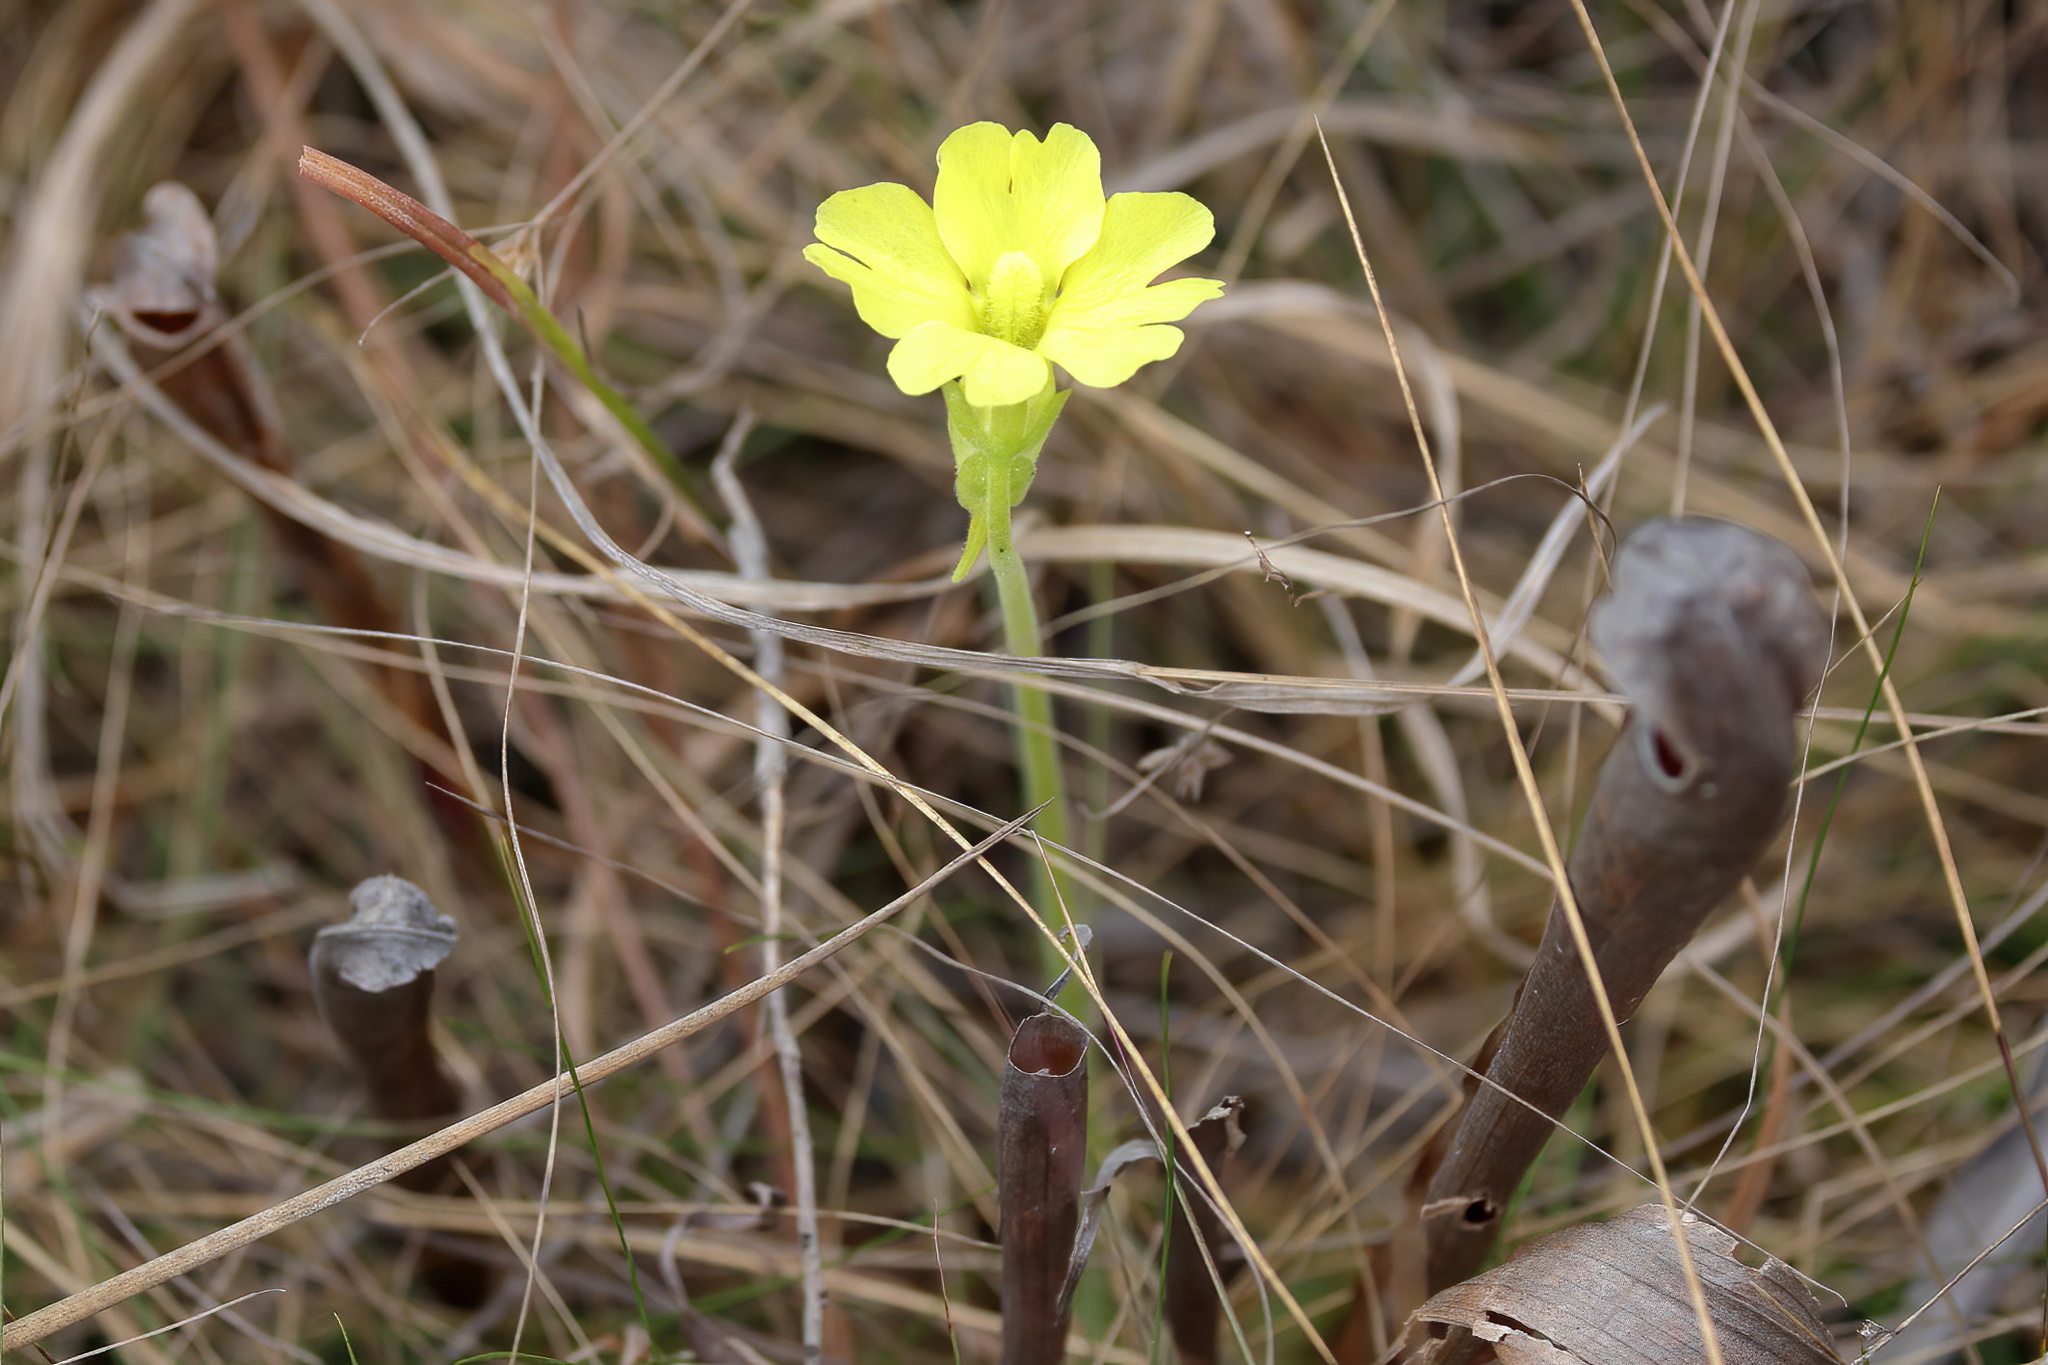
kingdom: Plantae
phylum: Tracheophyta
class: Magnoliopsida
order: Lamiales
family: Lentibulariaceae
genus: Pinguicula
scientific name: Pinguicula lutea
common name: Yellow butterwort
